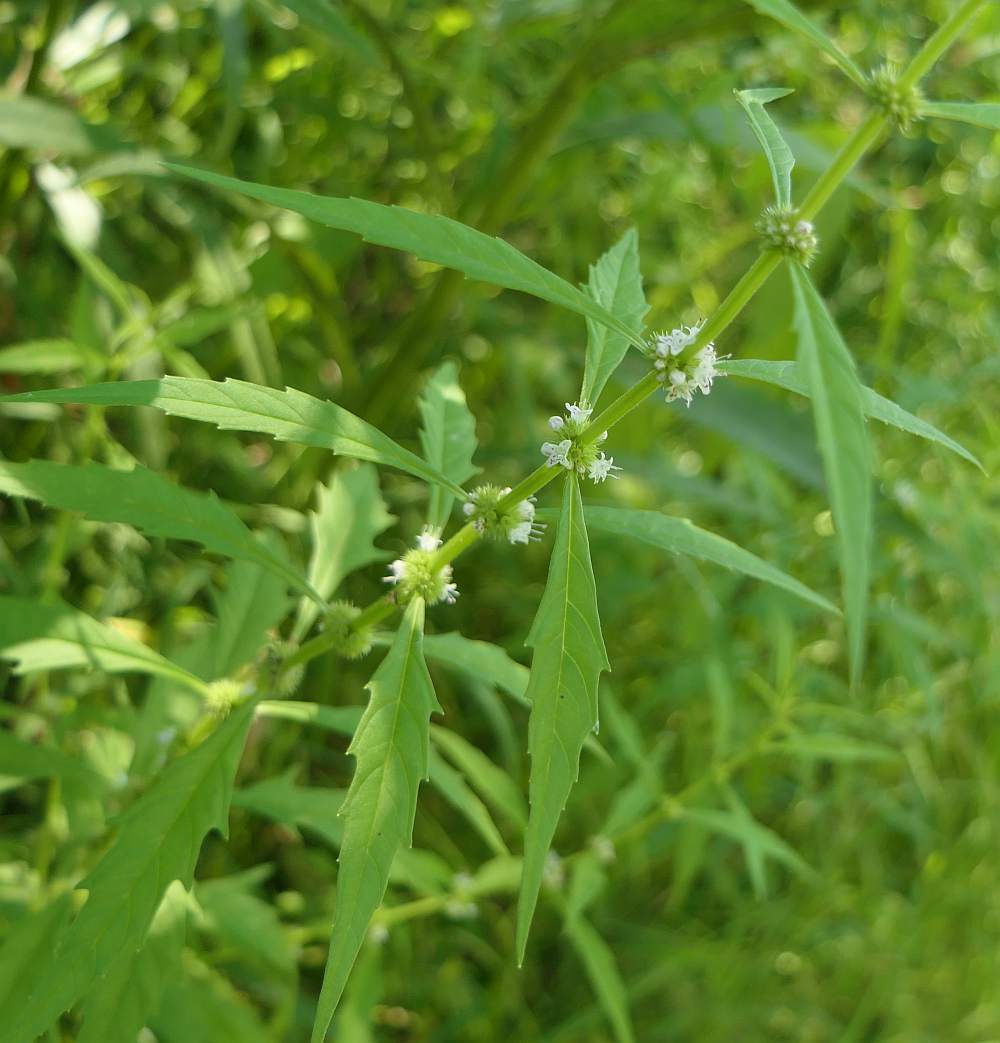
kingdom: Plantae
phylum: Tracheophyta
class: Magnoliopsida
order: Lamiales
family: Lamiaceae
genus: Lycopus
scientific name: Lycopus americanus
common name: American bugleweed
